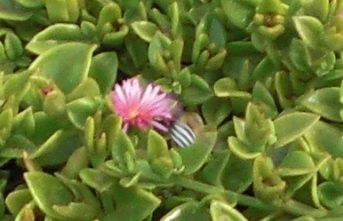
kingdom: Animalia
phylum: Arthropoda
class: Insecta
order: Hymenoptera
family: Apidae
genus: Amegilla
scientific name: Amegilla quadrifasciata
